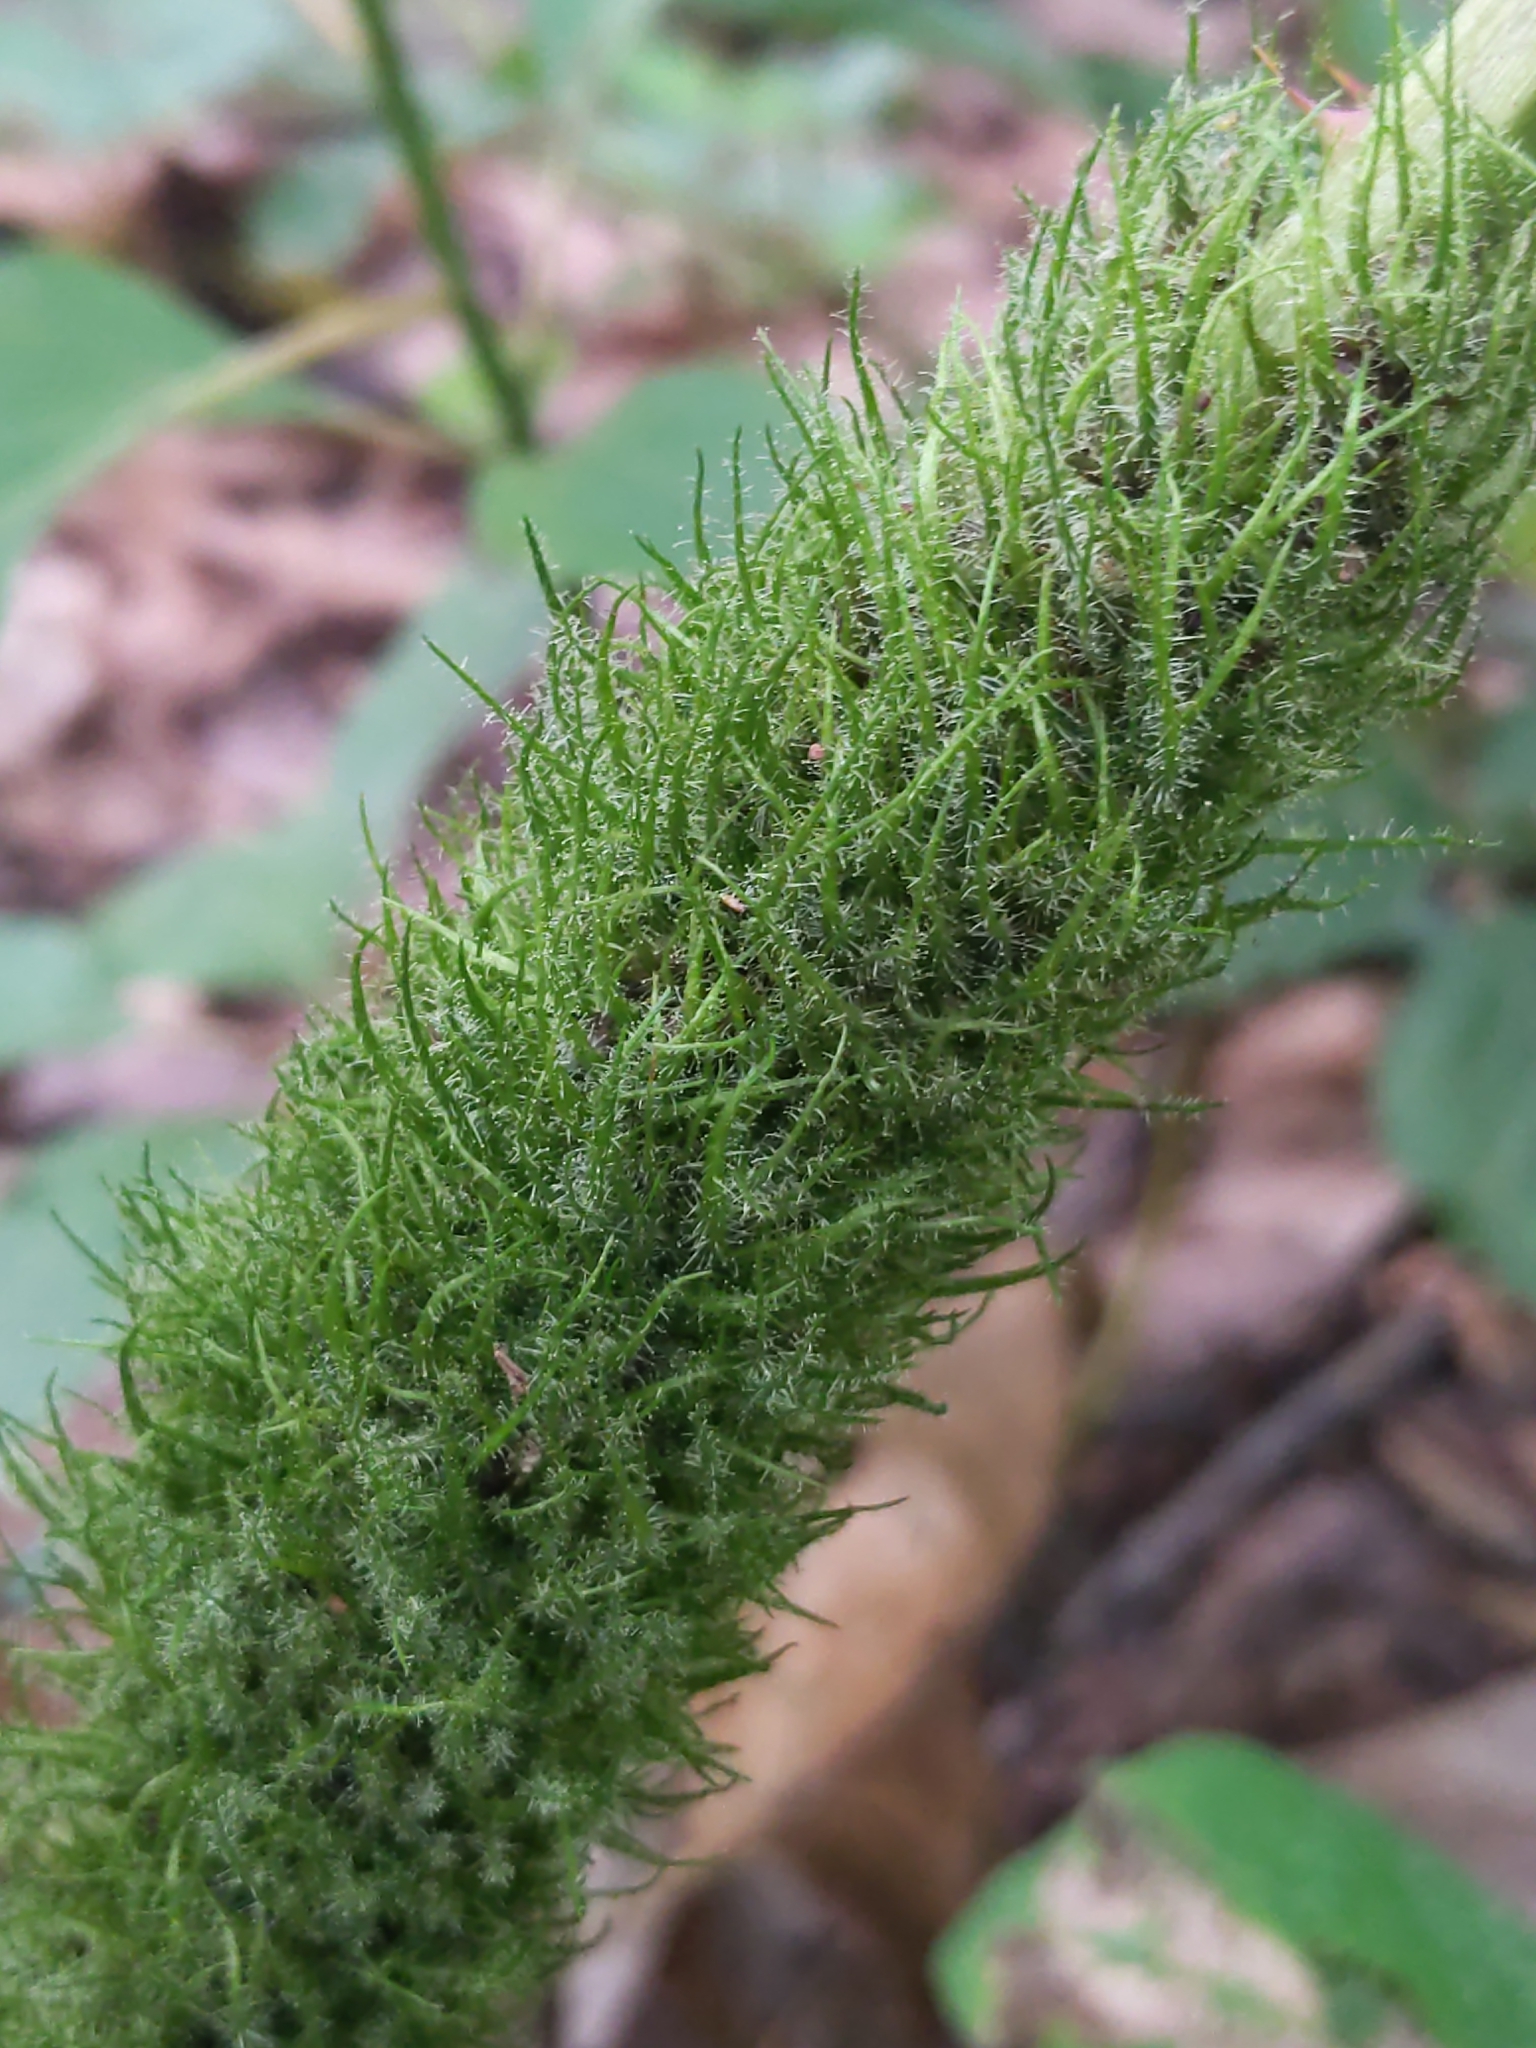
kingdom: Animalia
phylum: Arthropoda
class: Insecta
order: Hymenoptera
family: Cynipidae
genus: Diastrophus
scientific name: Diastrophus
